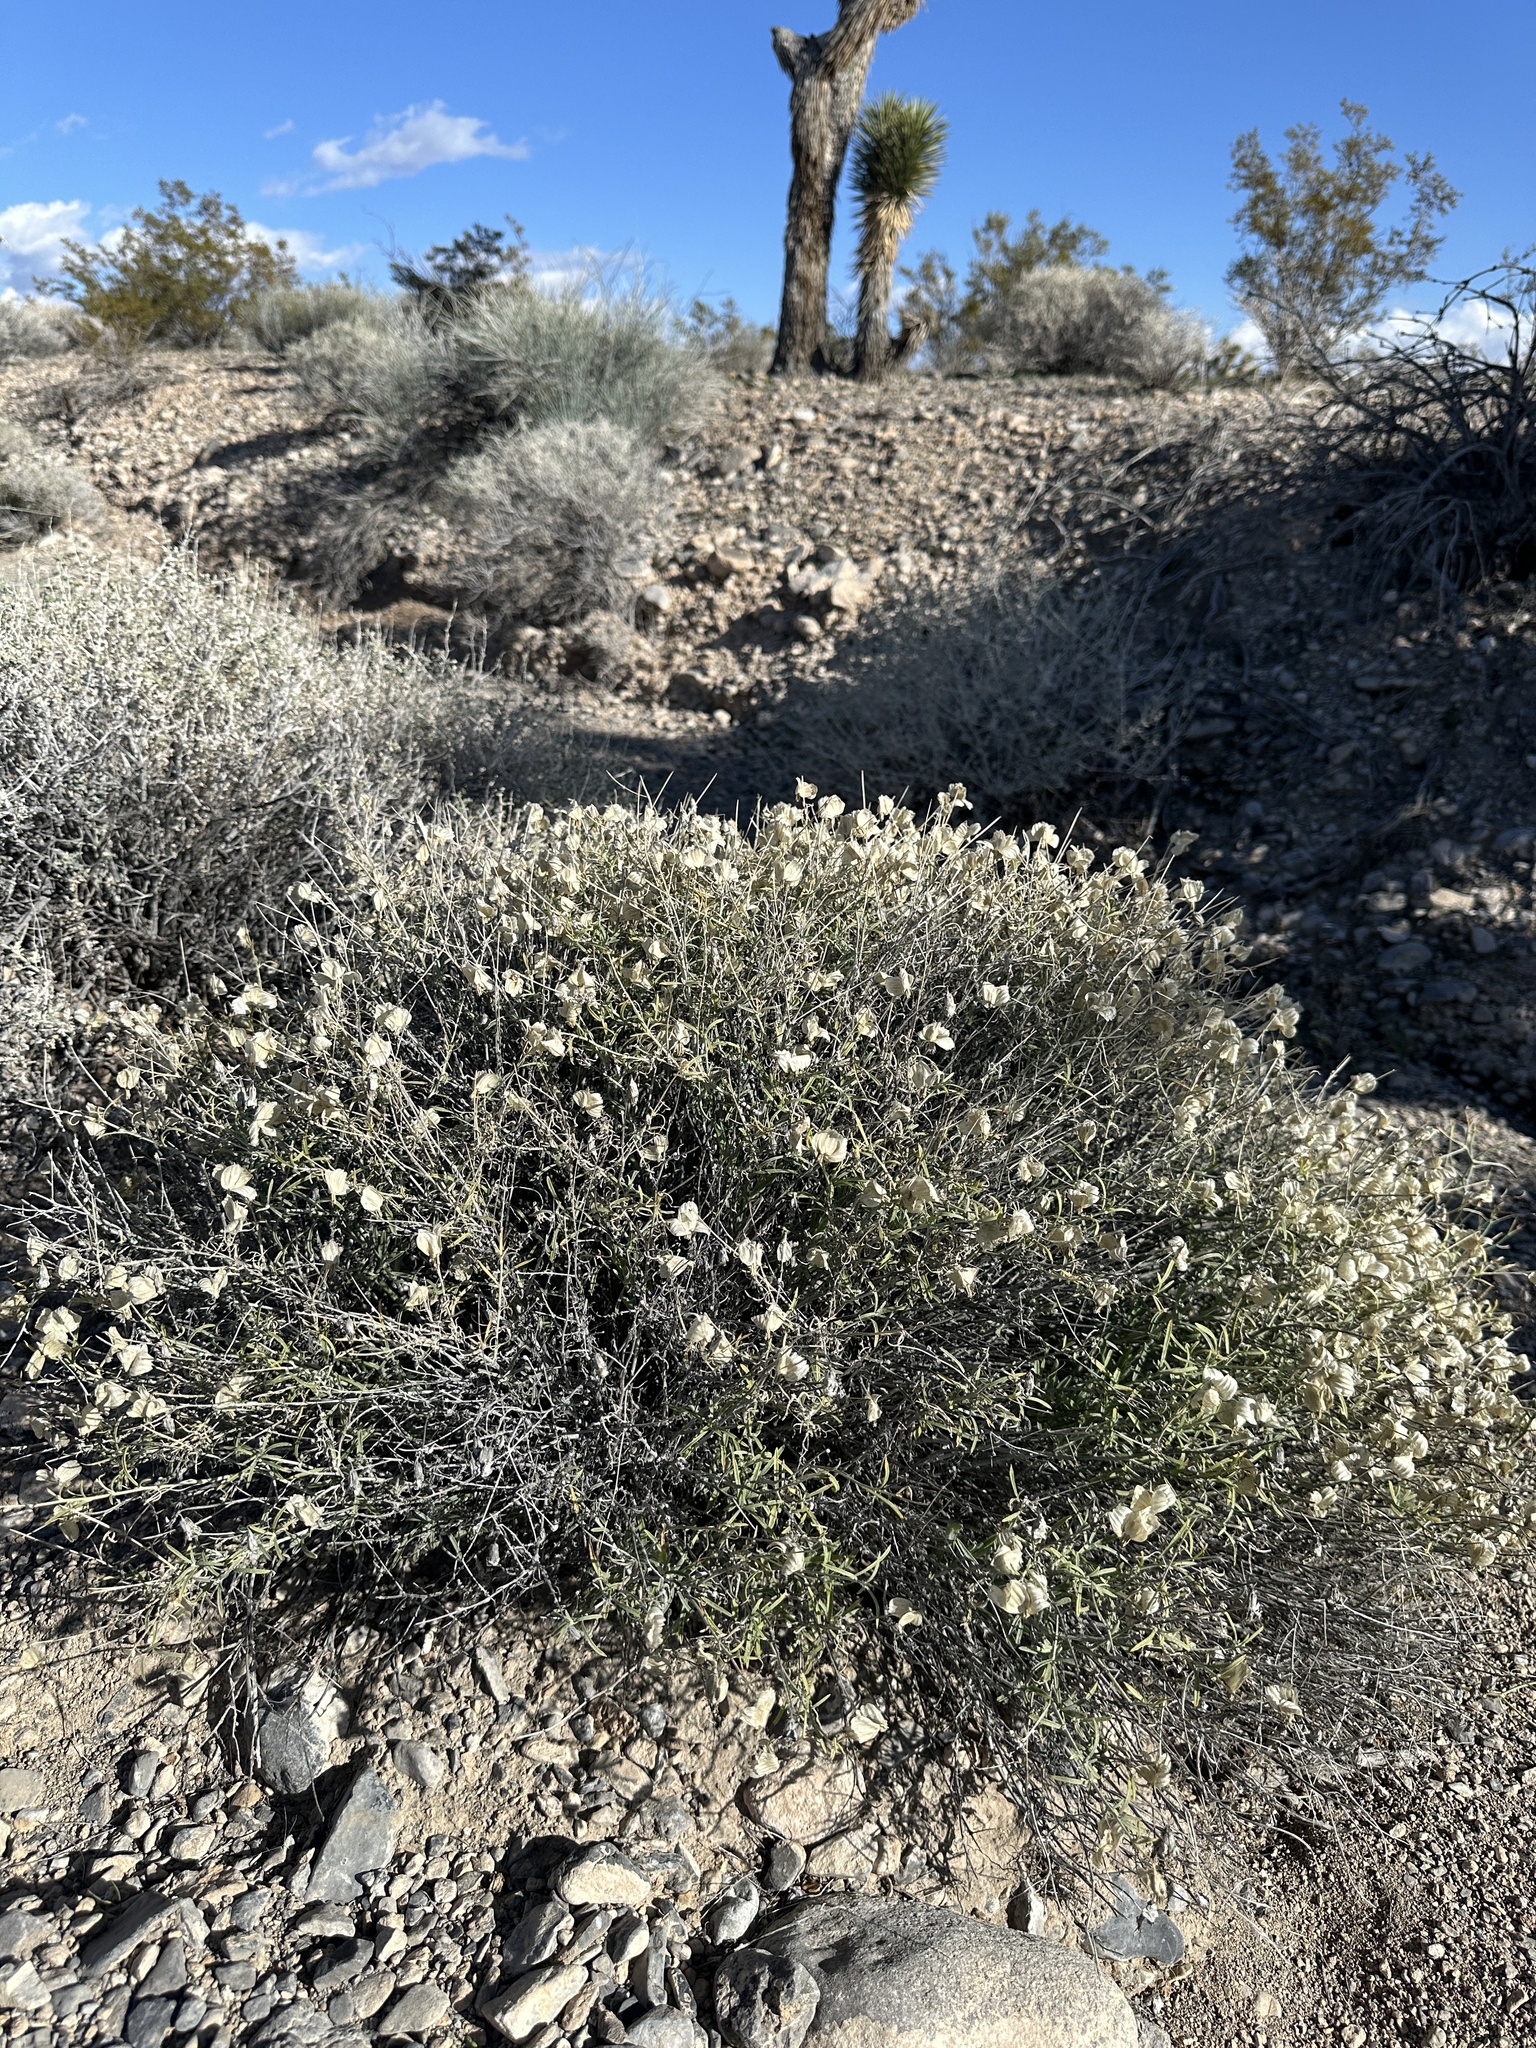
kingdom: Plantae
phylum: Tracheophyta
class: Magnoliopsida
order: Asterales
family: Asteraceae
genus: Psilostrophe
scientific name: Psilostrophe cooperi
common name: White-stem paper-flower
